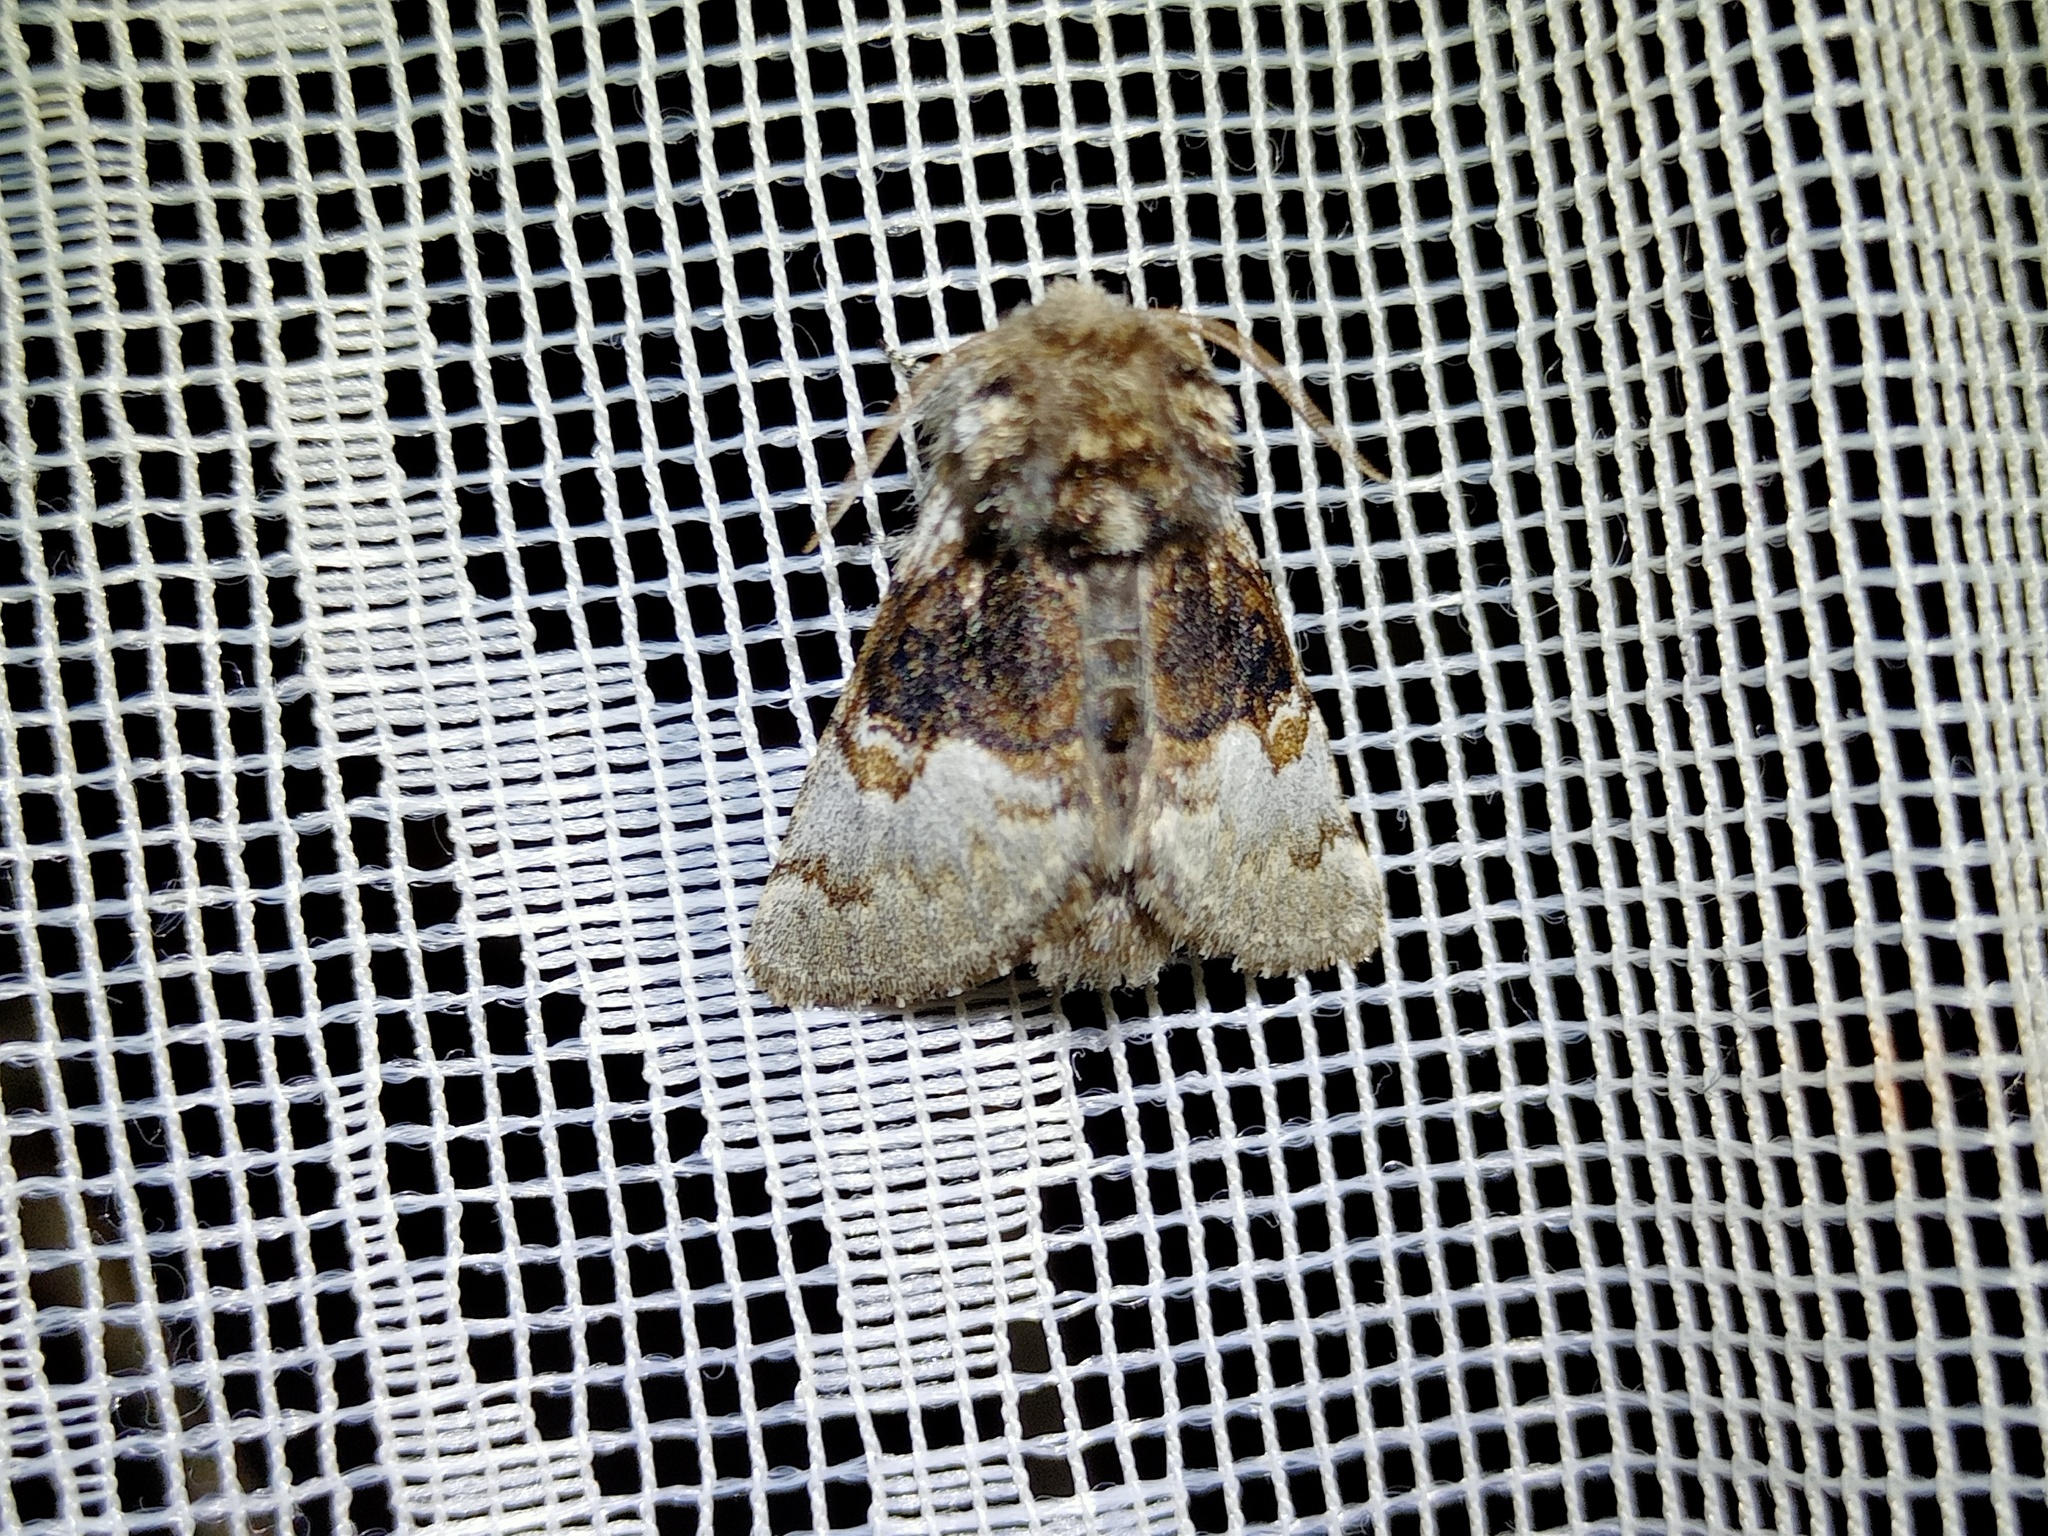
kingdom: Animalia
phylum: Arthropoda
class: Insecta
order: Lepidoptera
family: Noctuidae
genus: Colocasia
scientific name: Colocasia coryli
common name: Nut-tree tussock
